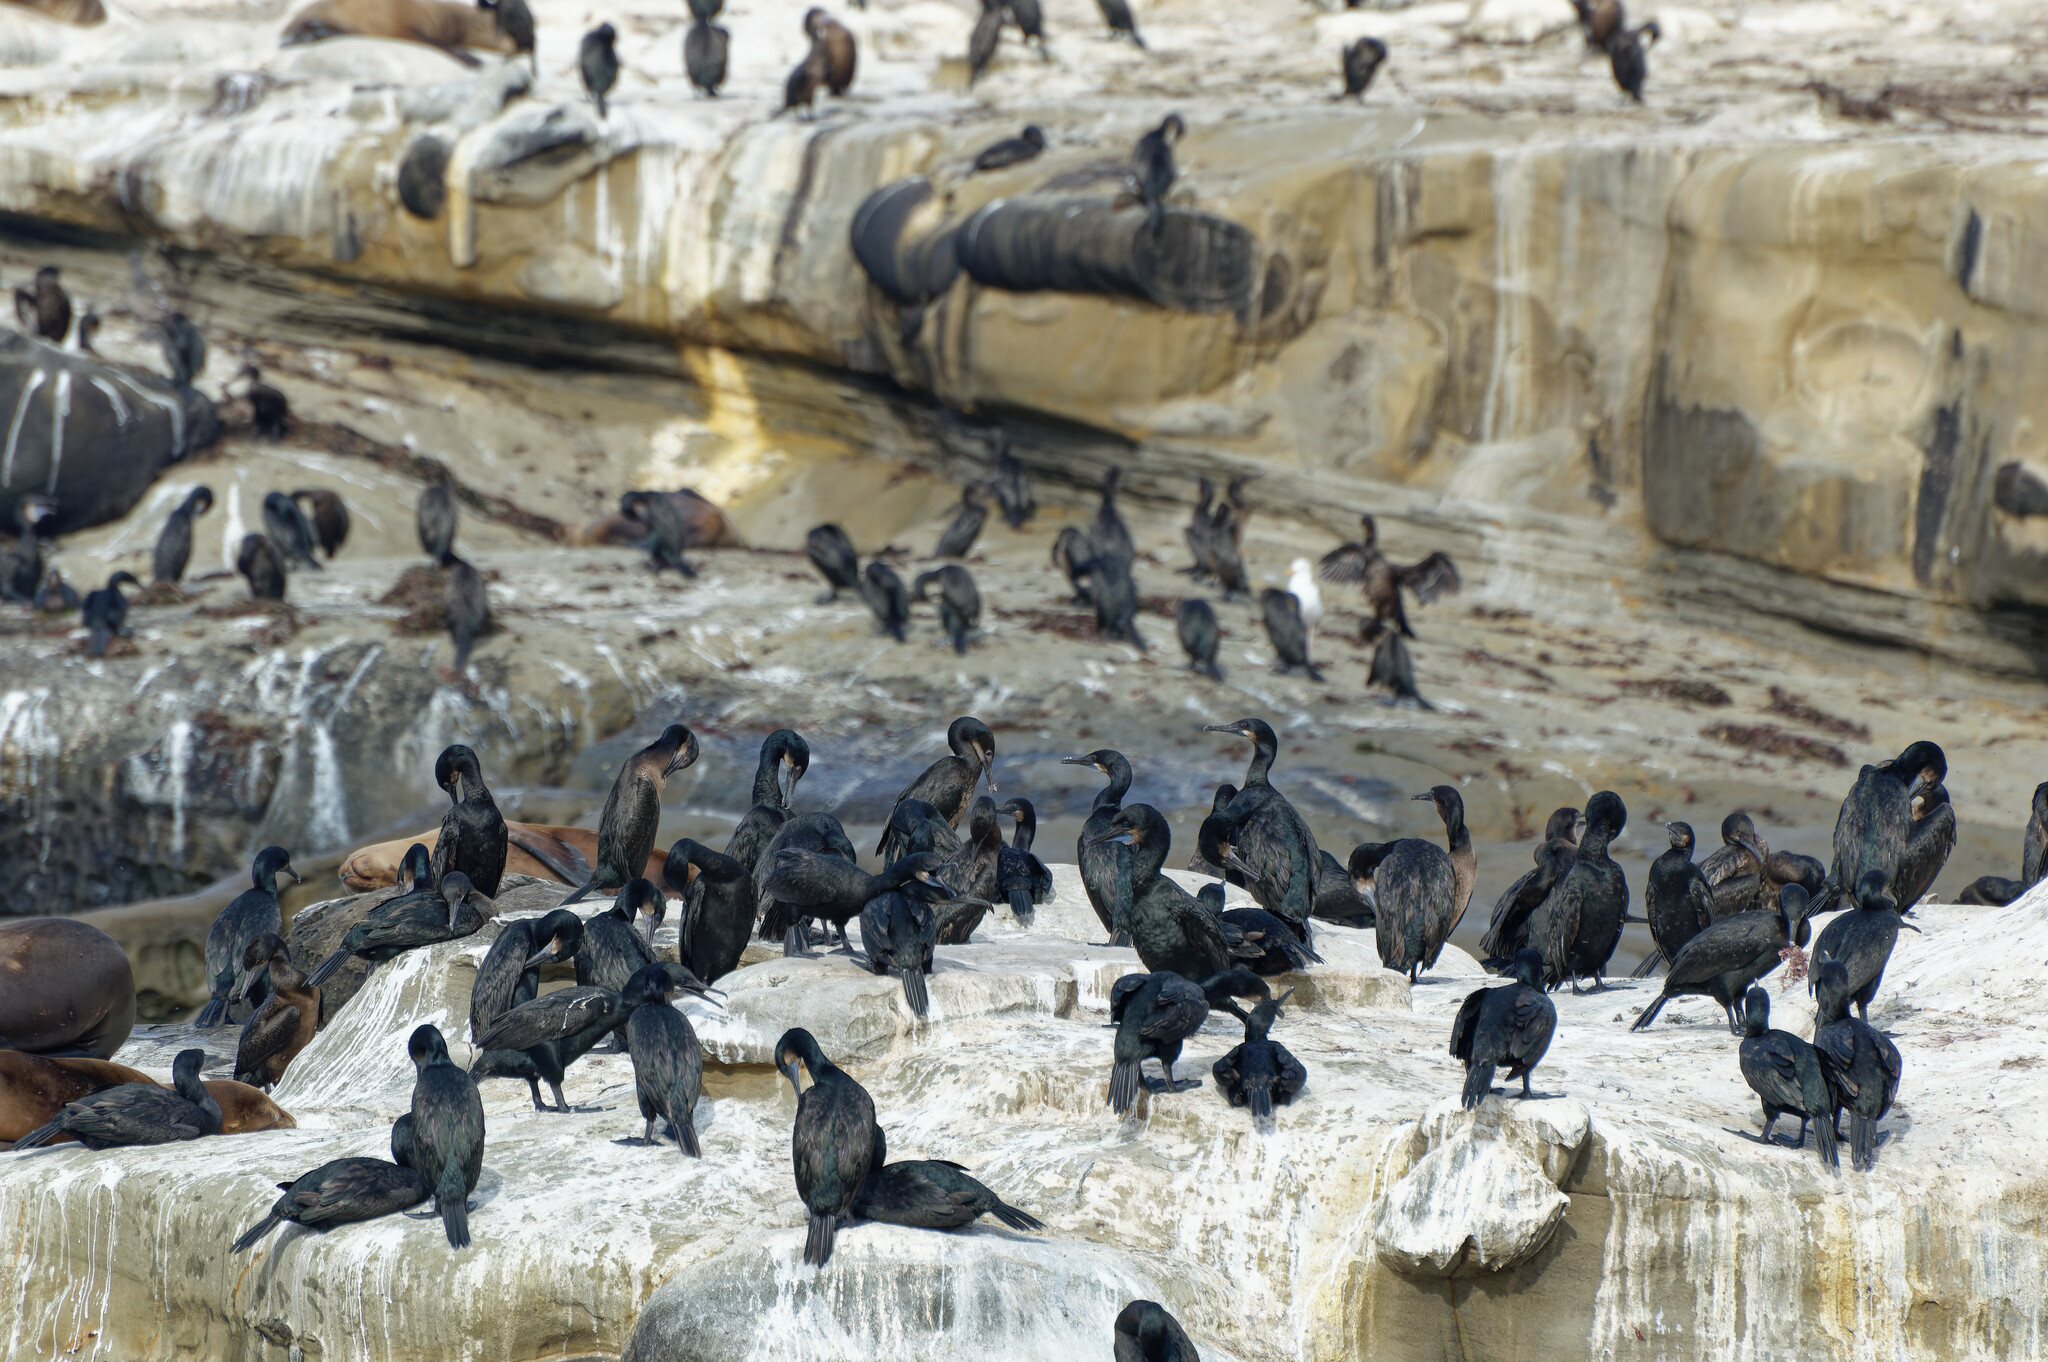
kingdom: Animalia
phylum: Chordata
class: Aves
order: Suliformes
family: Phalacrocoracidae
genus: Urile
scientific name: Urile penicillatus
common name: Brandt's cormorant
